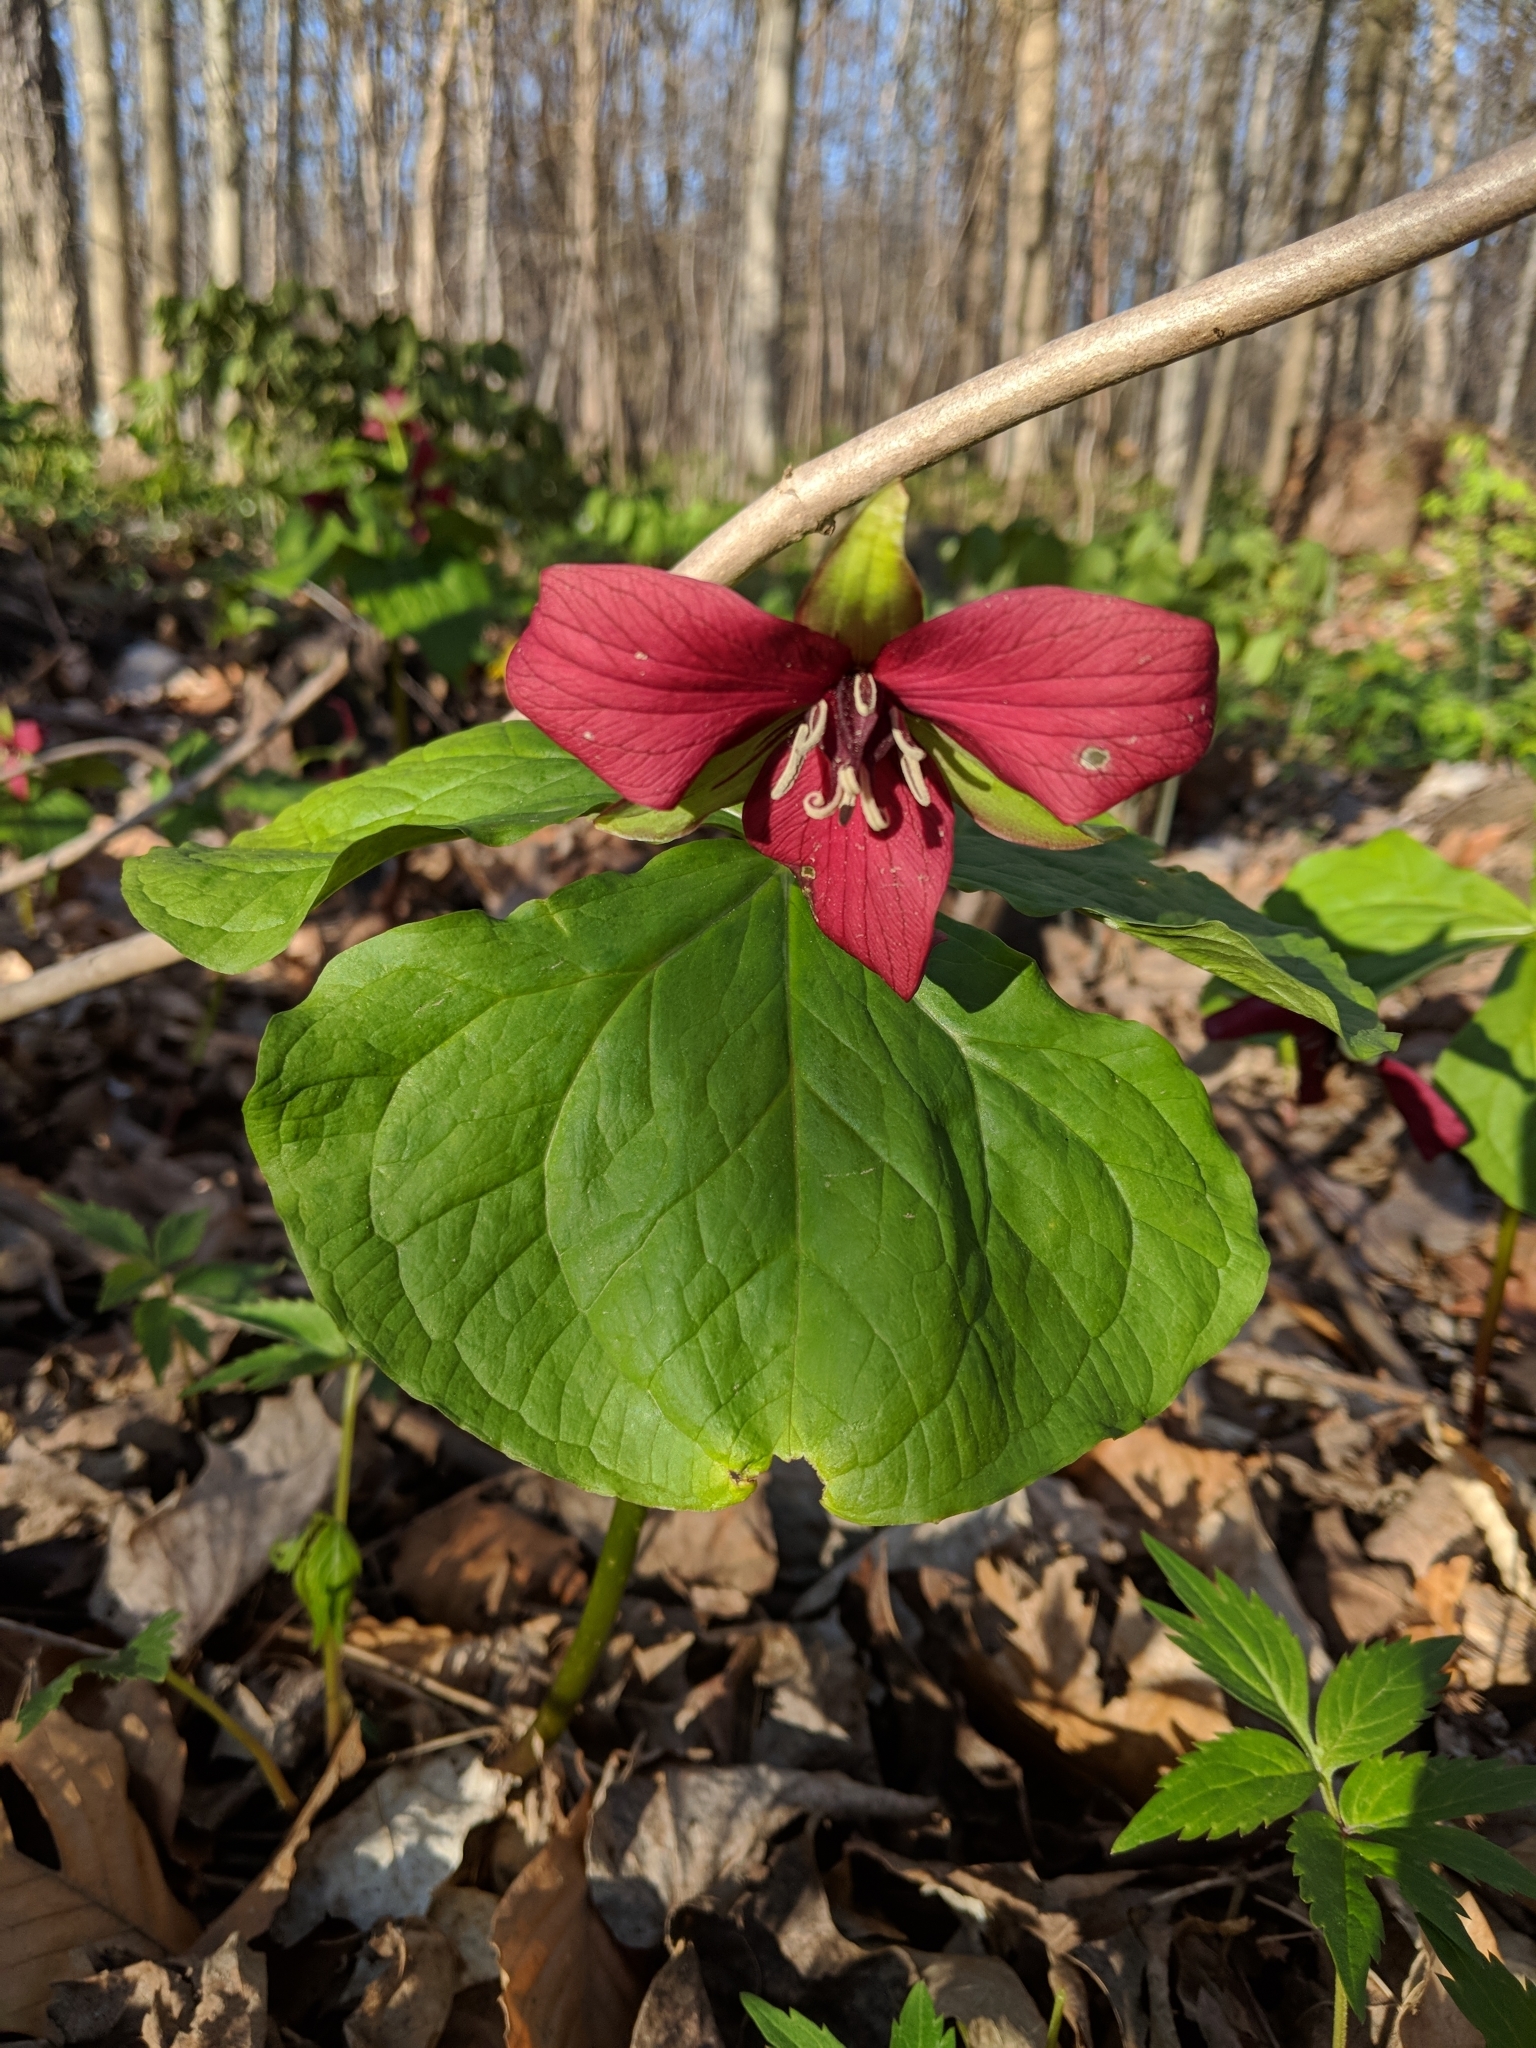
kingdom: Plantae
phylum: Tracheophyta
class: Liliopsida
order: Liliales
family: Melanthiaceae
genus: Trillium
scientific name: Trillium erectum
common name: Purple trillium
